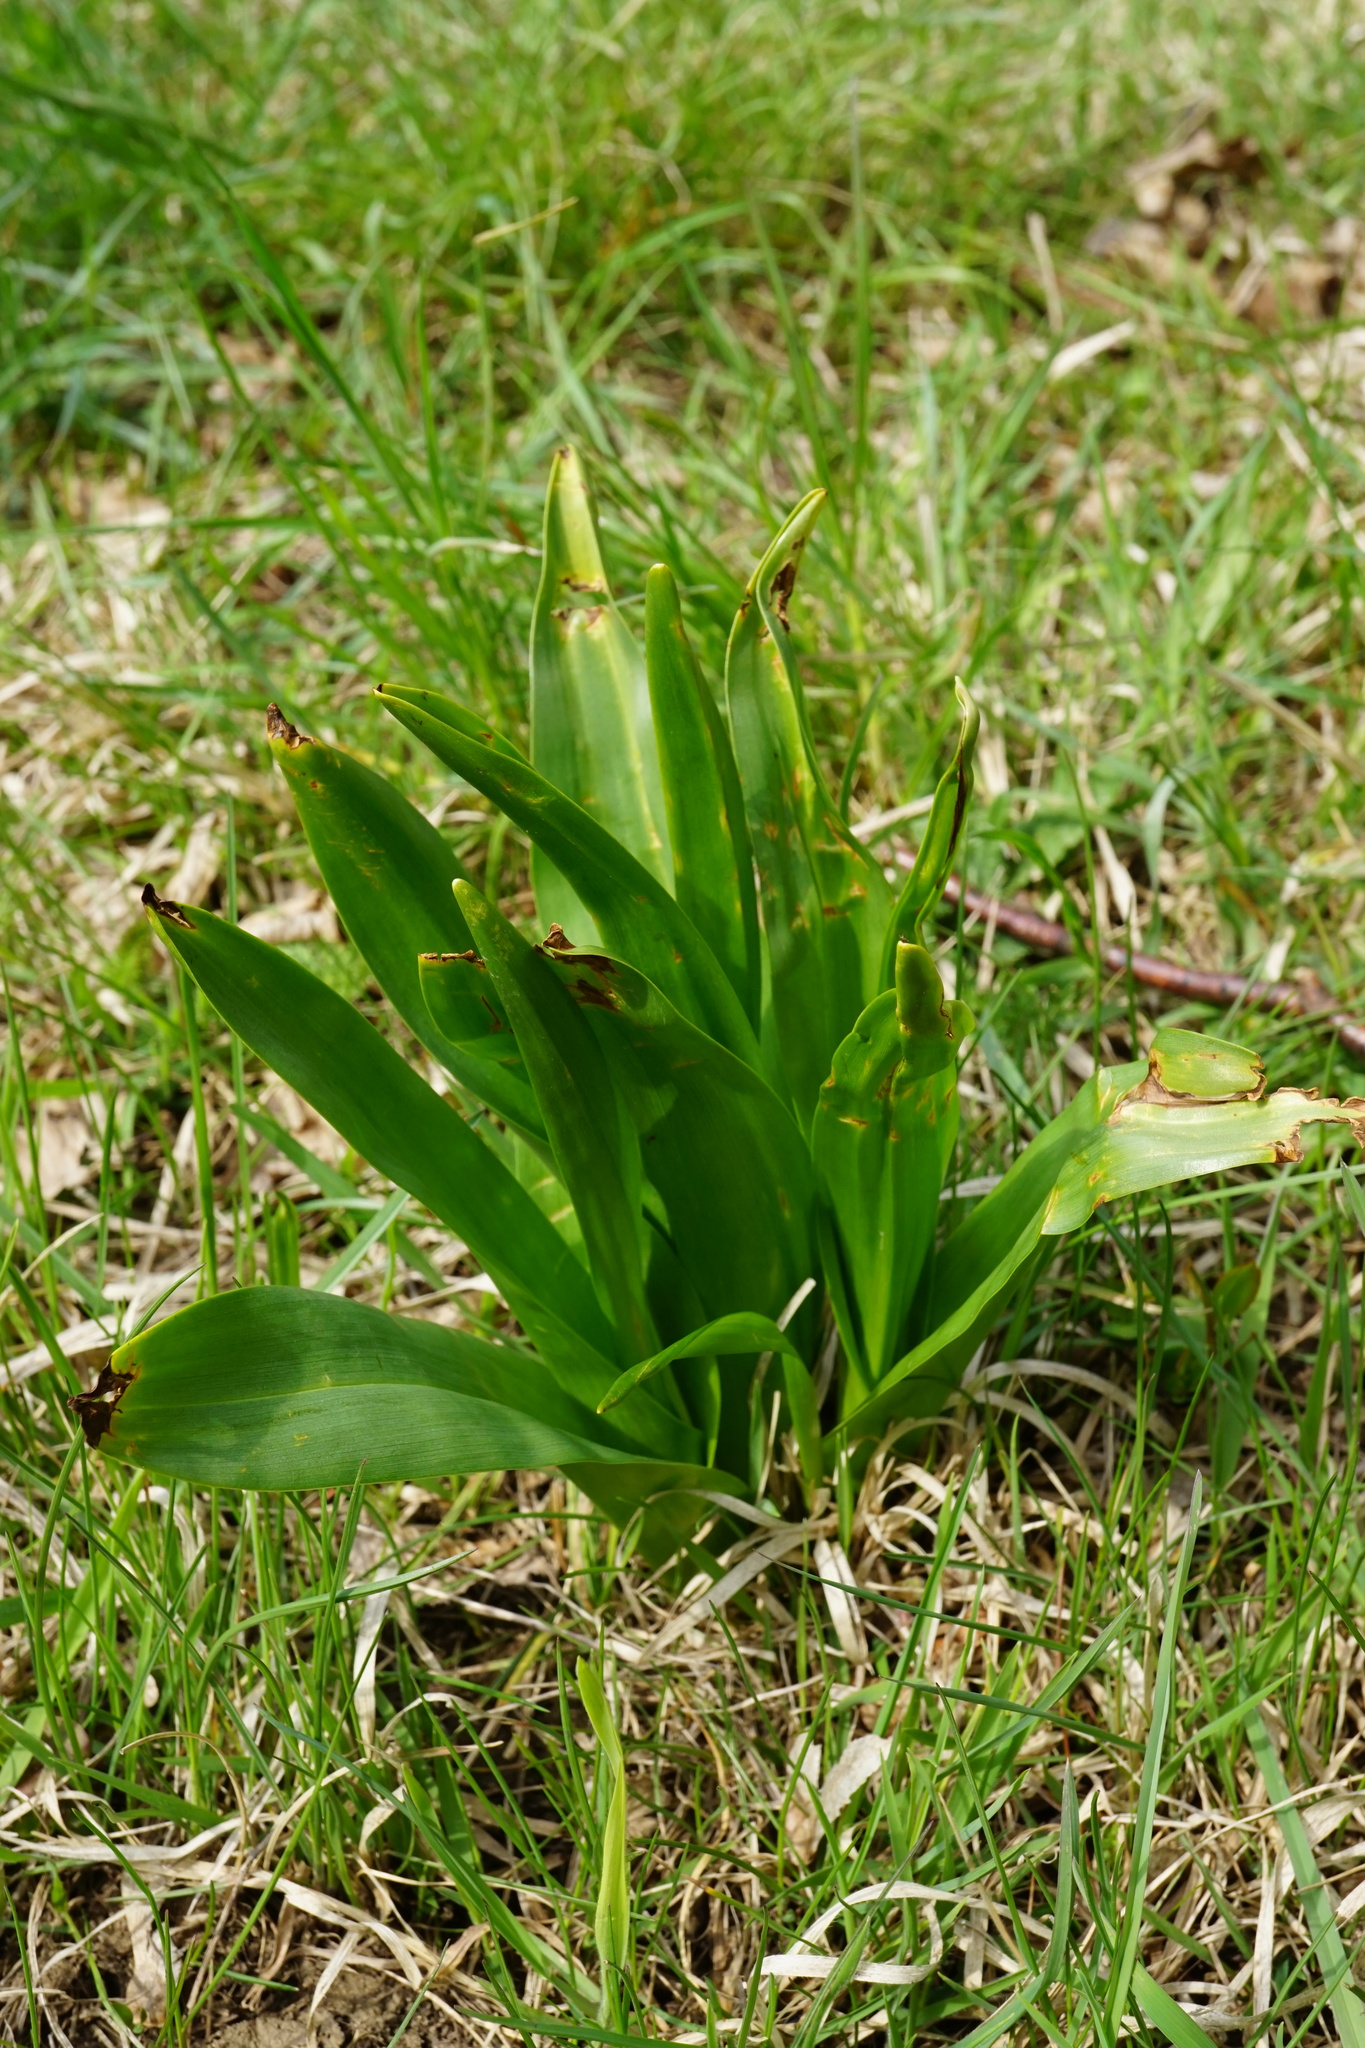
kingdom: Plantae
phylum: Tracheophyta
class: Liliopsida
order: Liliales
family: Colchicaceae
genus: Colchicum
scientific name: Colchicum autumnale
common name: Autumn crocus
